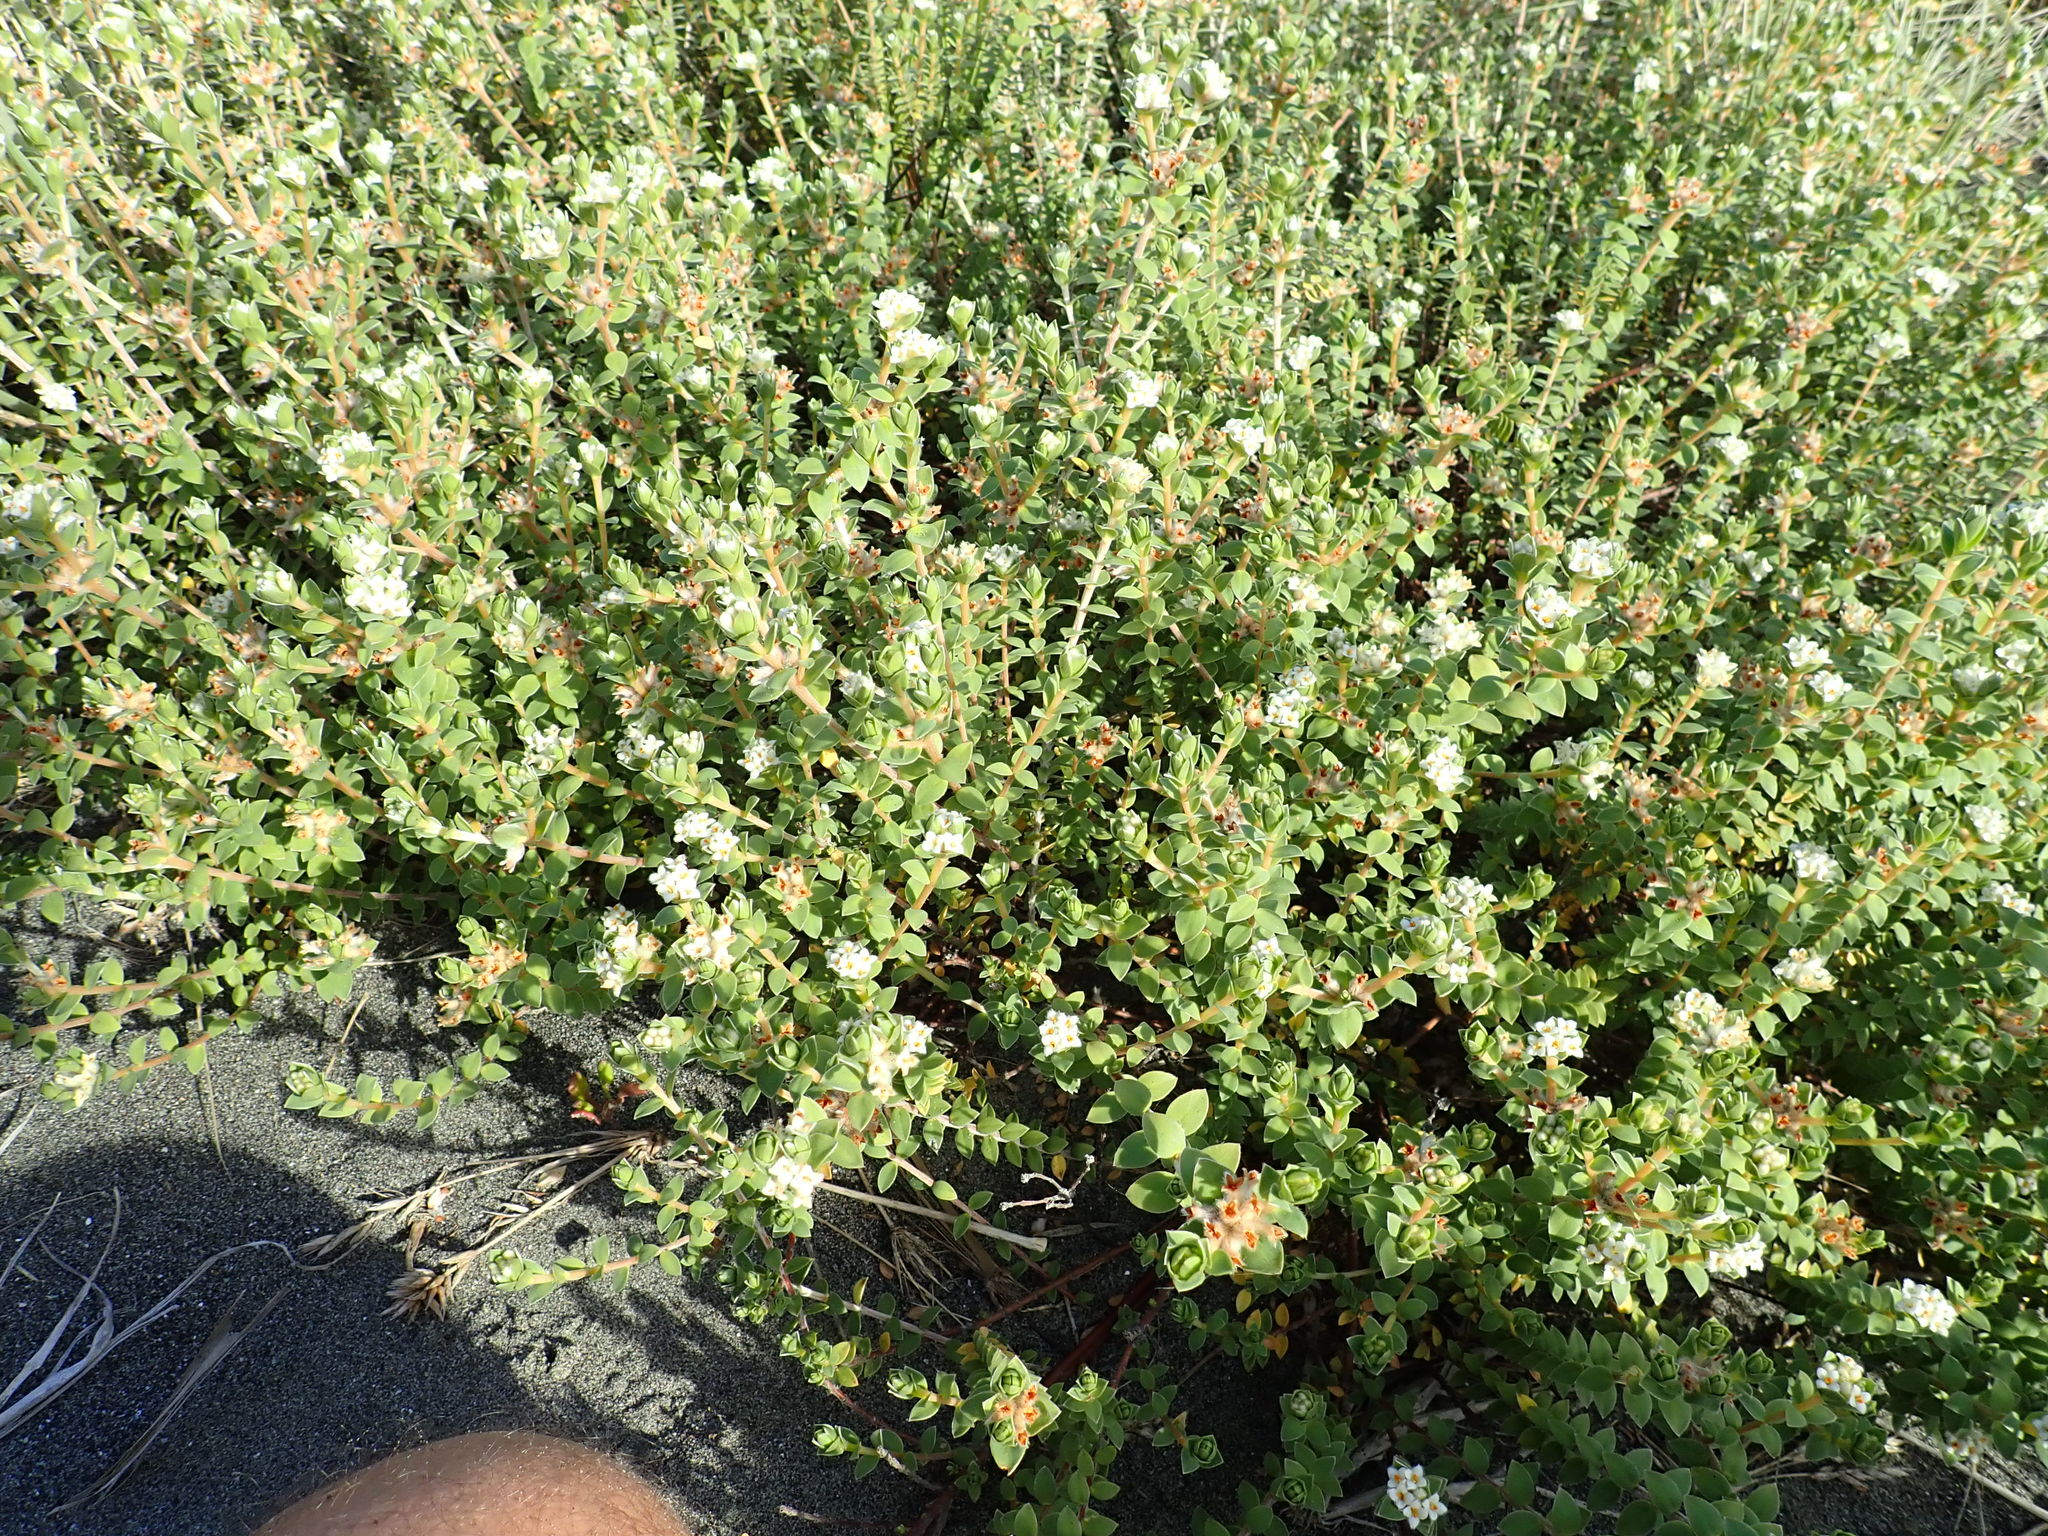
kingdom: Plantae
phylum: Tracheophyta
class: Magnoliopsida
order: Malvales
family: Thymelaeaceae
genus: Pimelea
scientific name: Pimelea villosa
